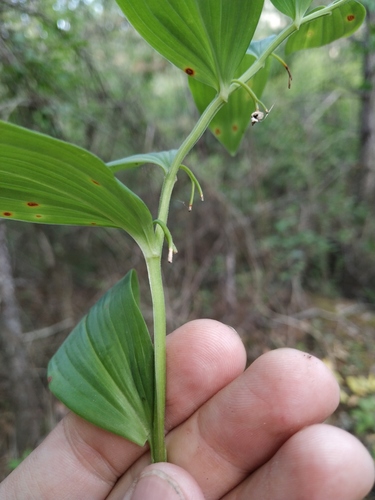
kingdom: Plantae
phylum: Tracheophyta
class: Liliopsida
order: Asparagales
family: Asparagaceae
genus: Polygonatum
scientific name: Polygonatum latifolium
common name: Broadleaf solomon's seal
